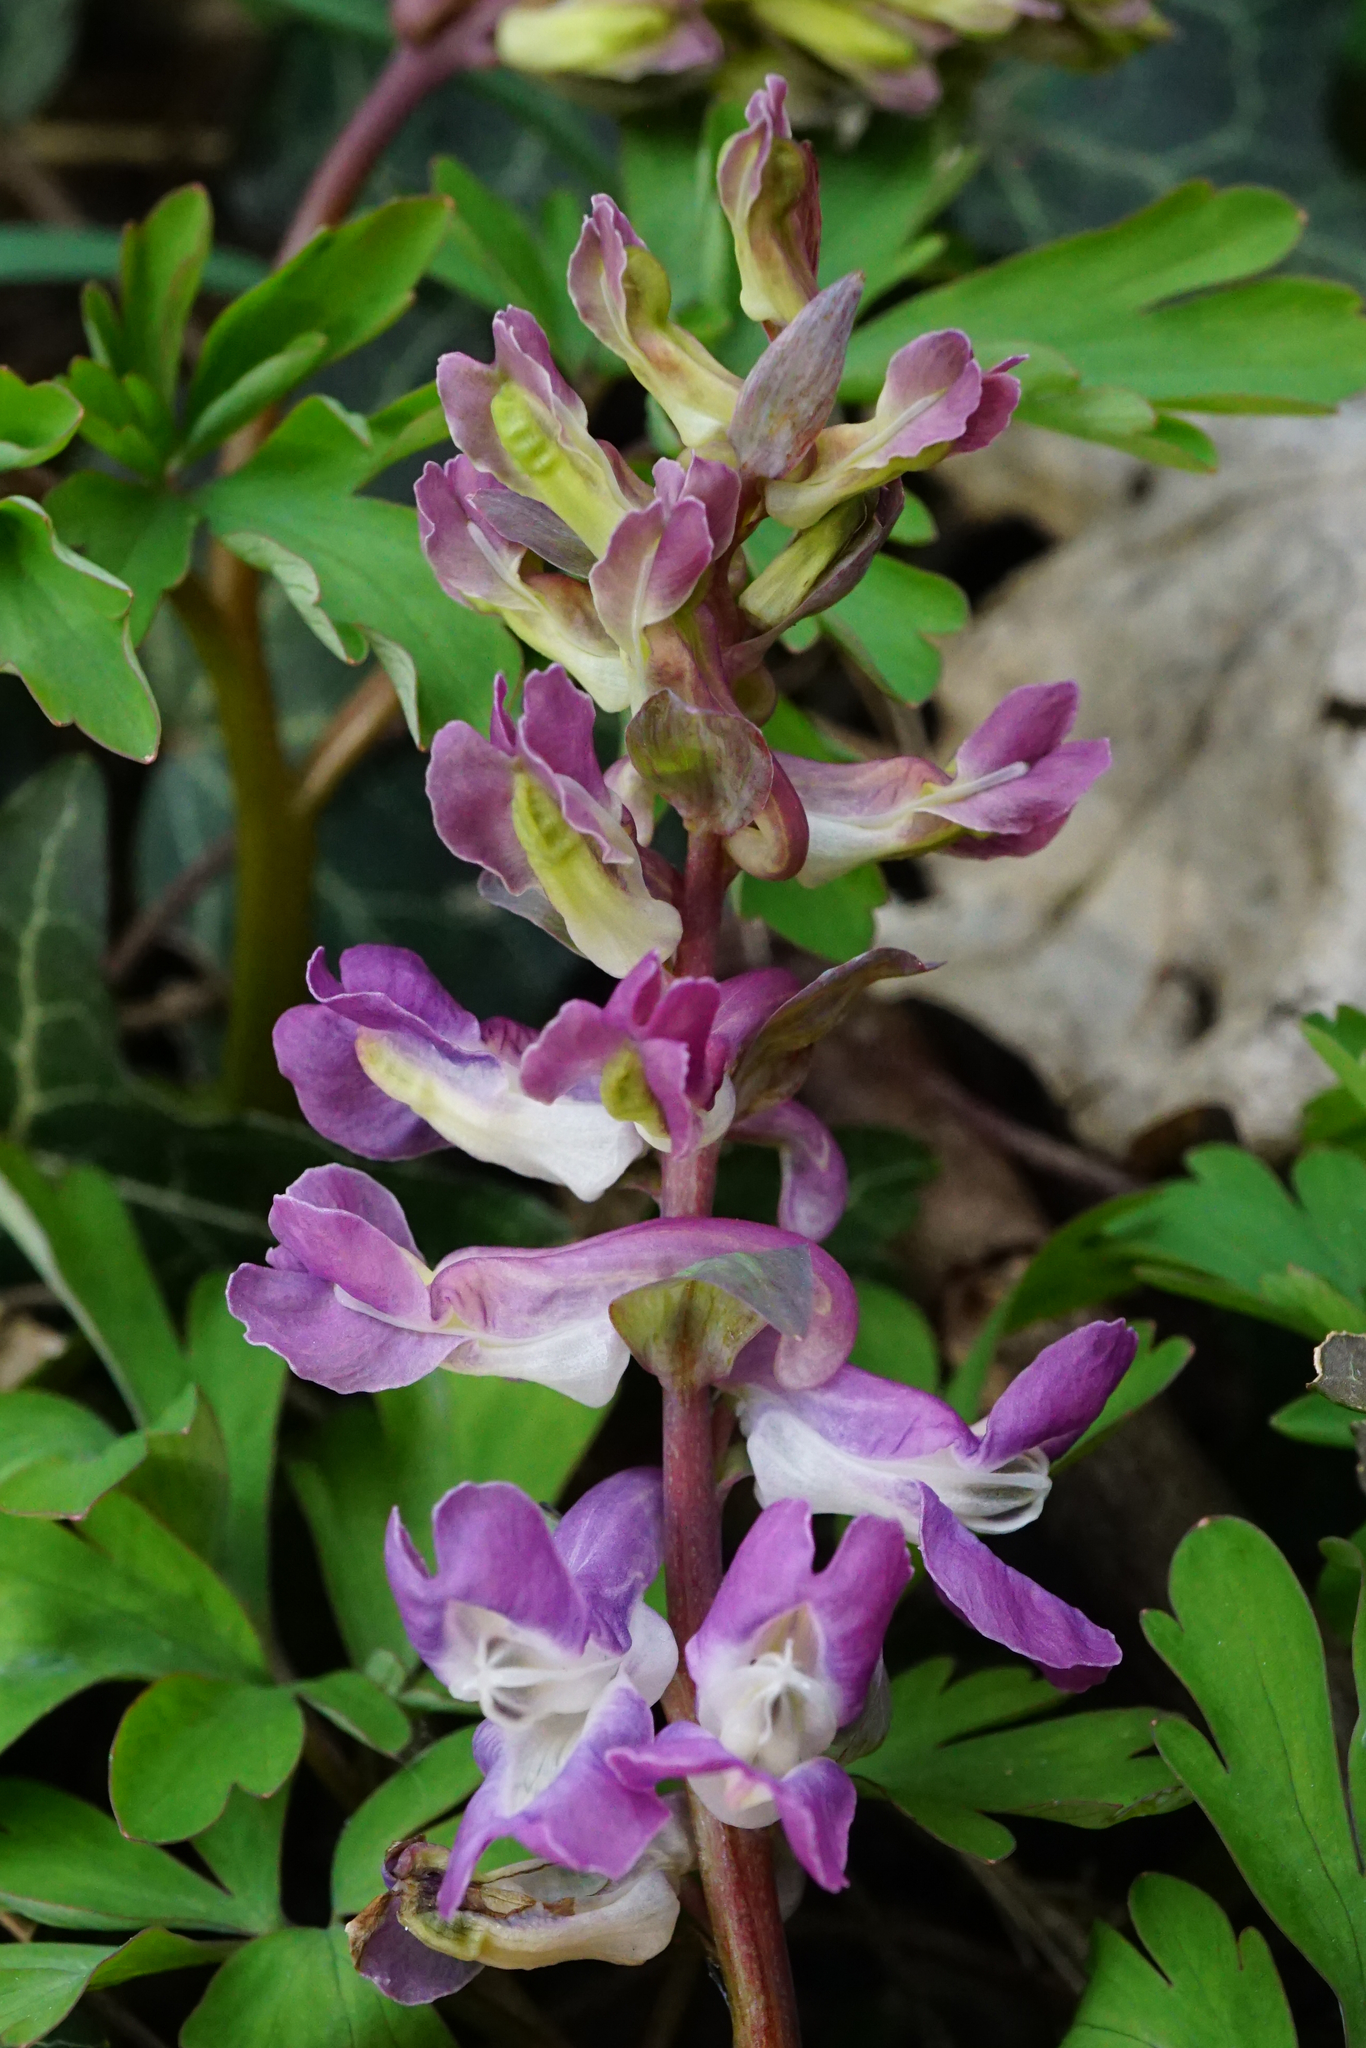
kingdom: Plantae
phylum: Tracheophyta
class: Magnoliopsida
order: Ranunculales
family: Papaveraceae
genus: Corydalis
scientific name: Corydalis cava
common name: Hollowroot
